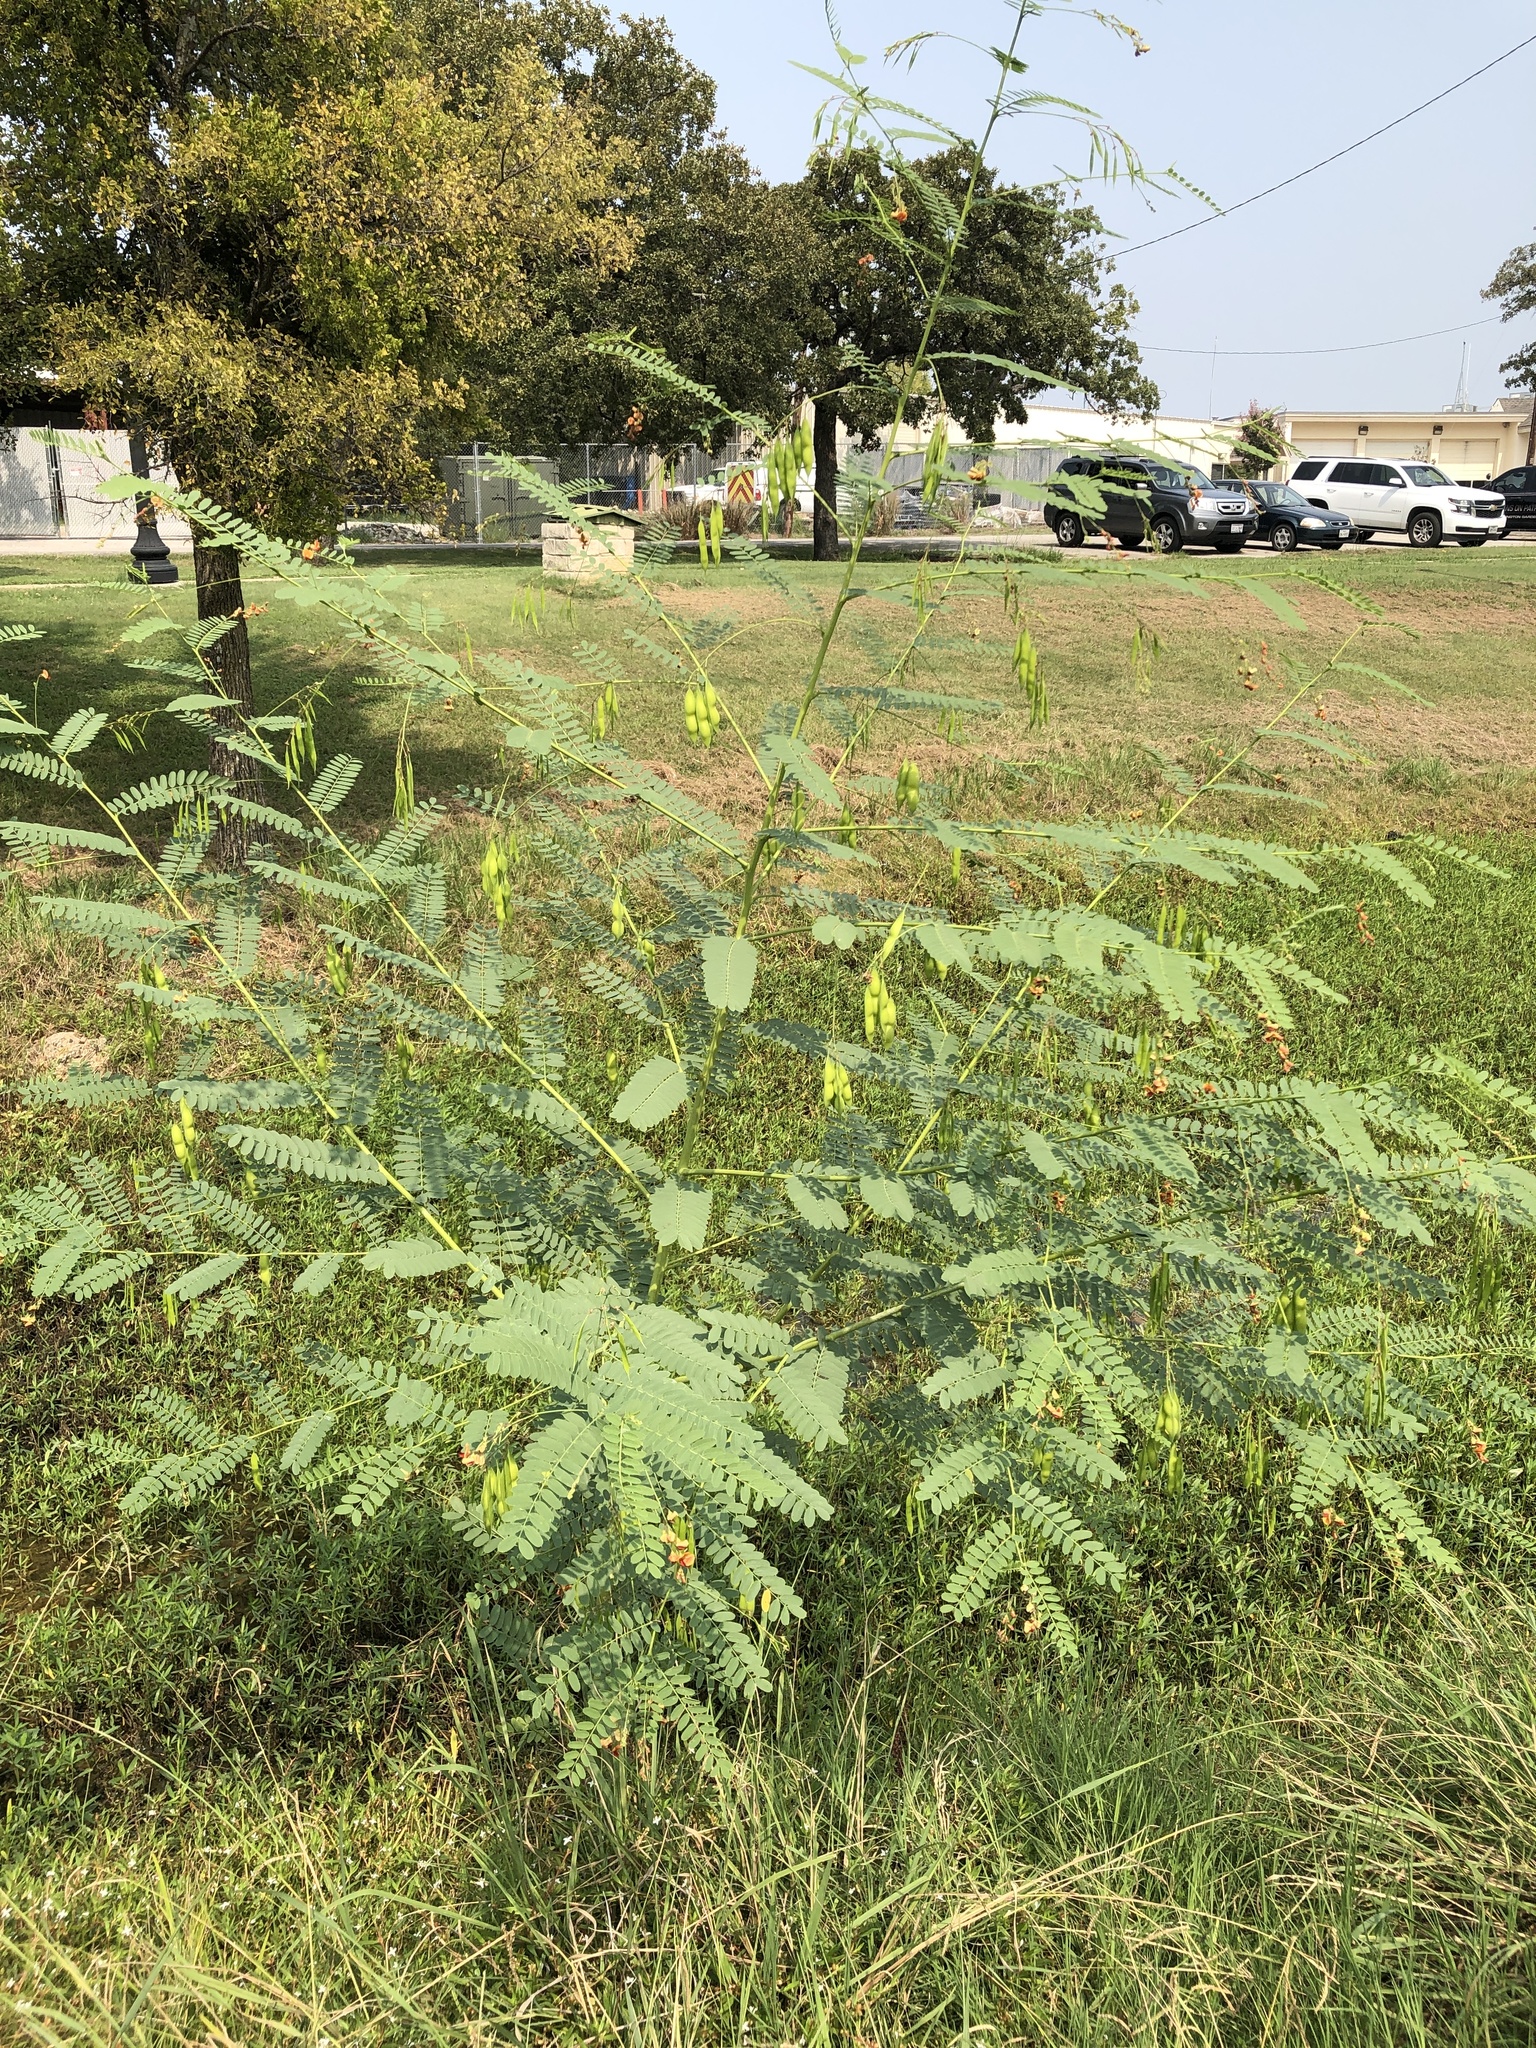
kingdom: Plantae
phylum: Tracheophyta
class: Magnoliopsida
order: Fabales
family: Fabaceae
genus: Sesbania
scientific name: Sesbania vesicaria
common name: Bagpod
